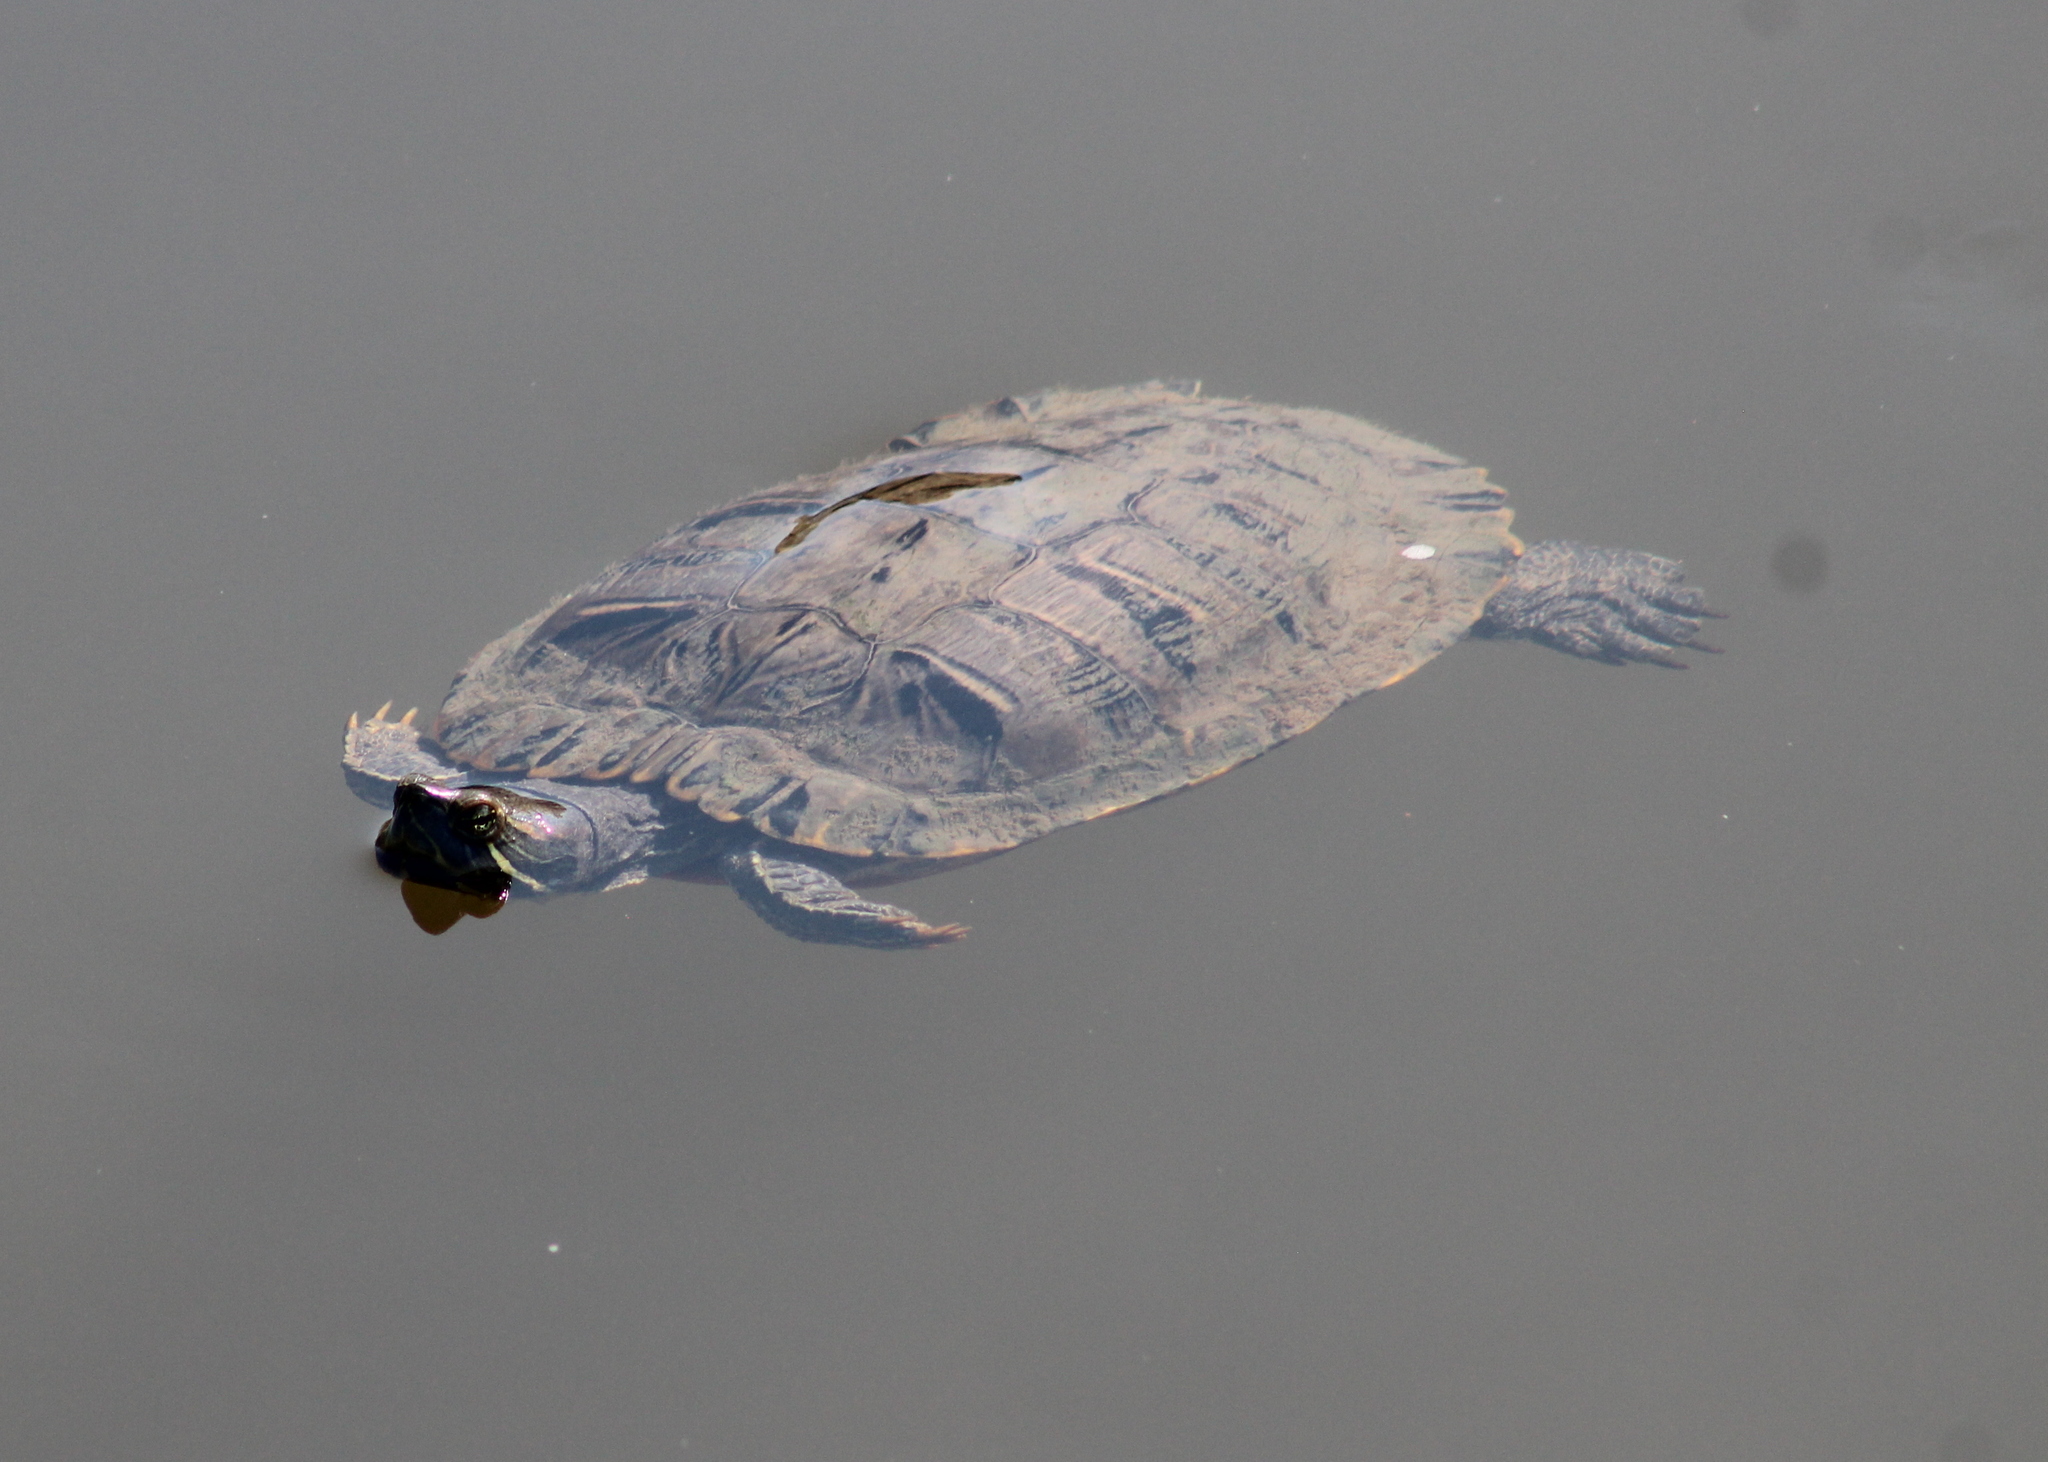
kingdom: Animalia
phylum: Chordata
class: Testudines
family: Emydidae
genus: Trachemys
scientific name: Trachemys scripta
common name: Slider
